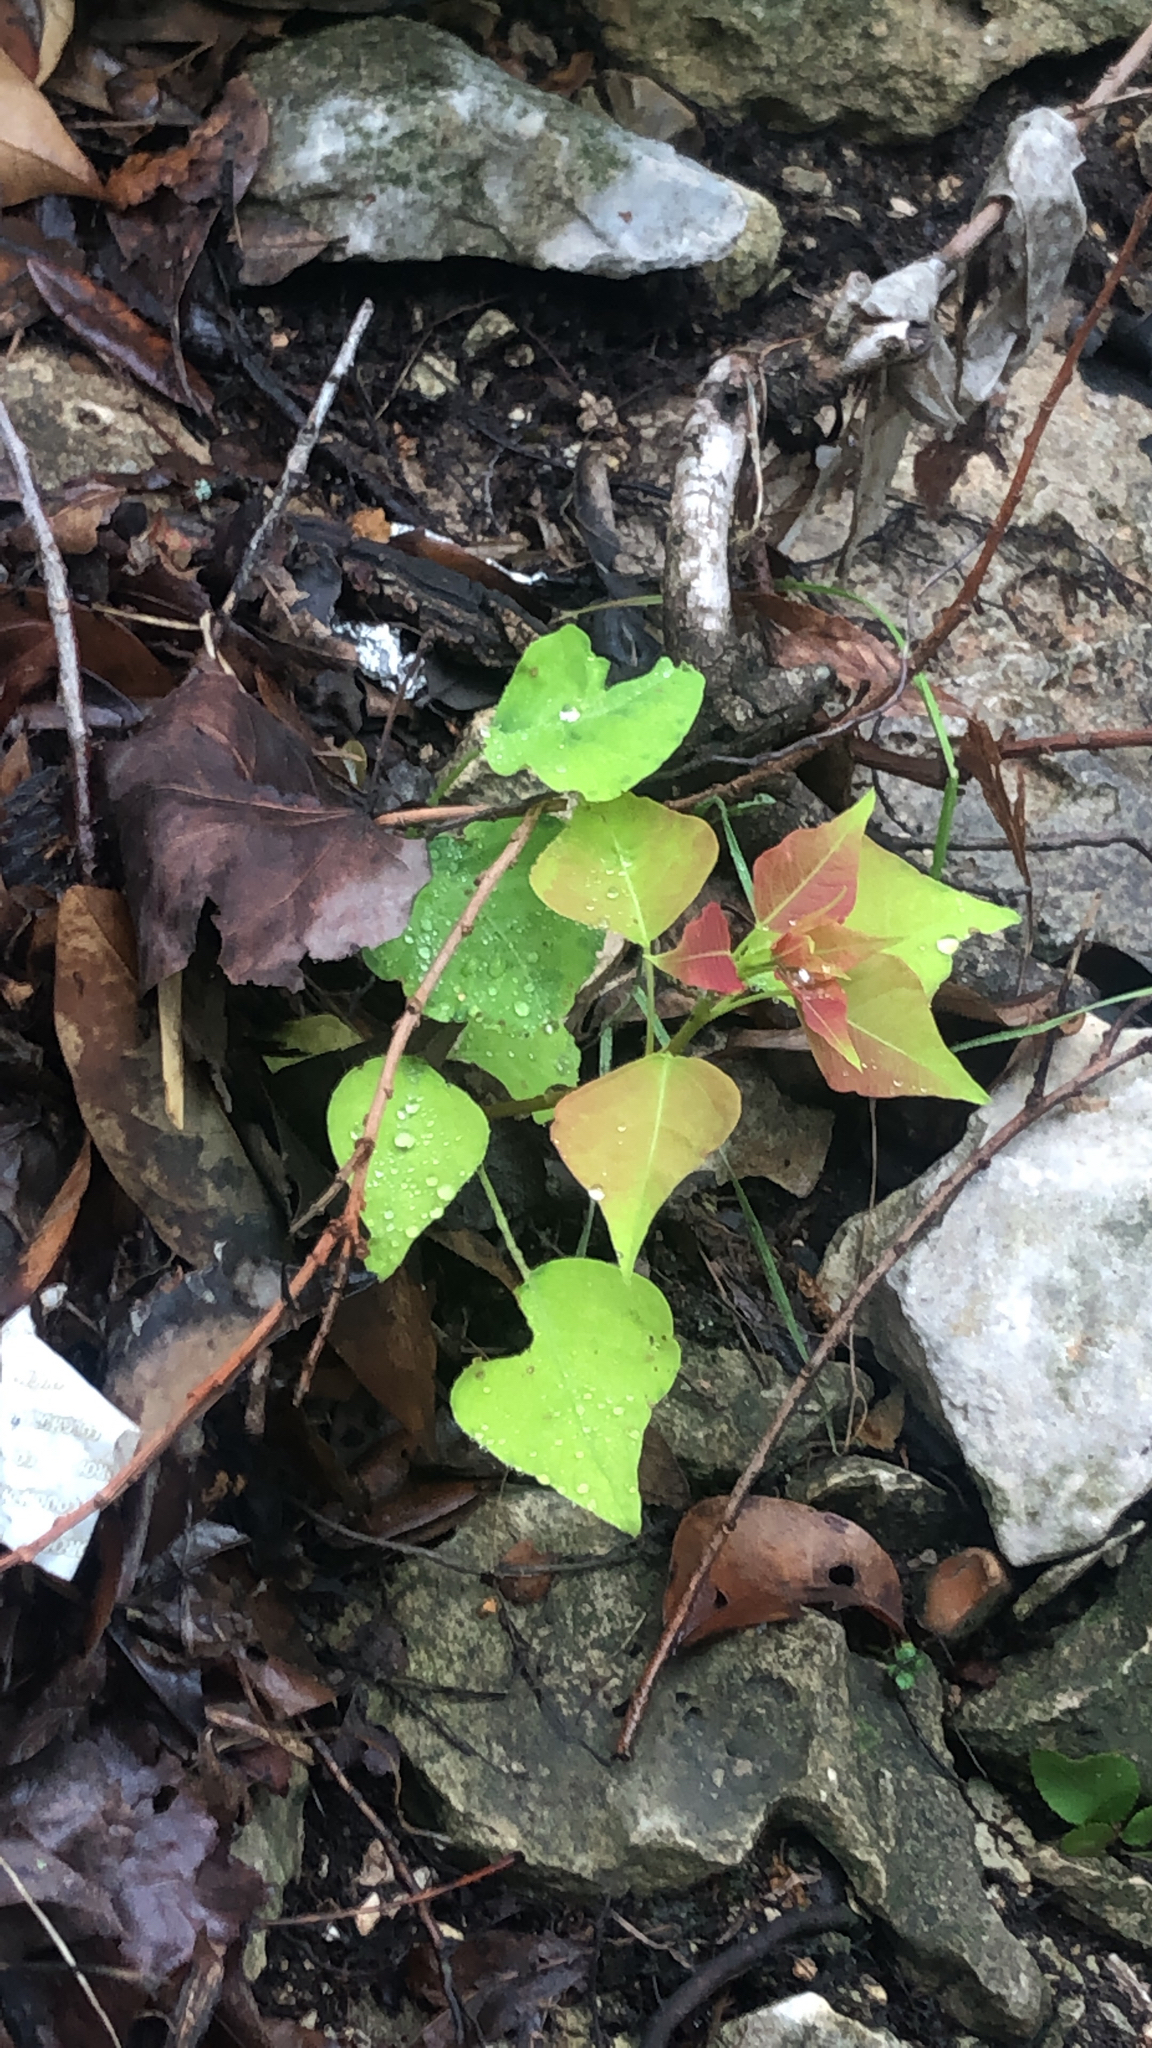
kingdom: Plantae
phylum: Tracheophyta
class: Magnoliopsida
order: Malpighiales
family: Euphorbiaceae
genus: Triadica
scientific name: Triadica sebifera
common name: Chinese tallow
